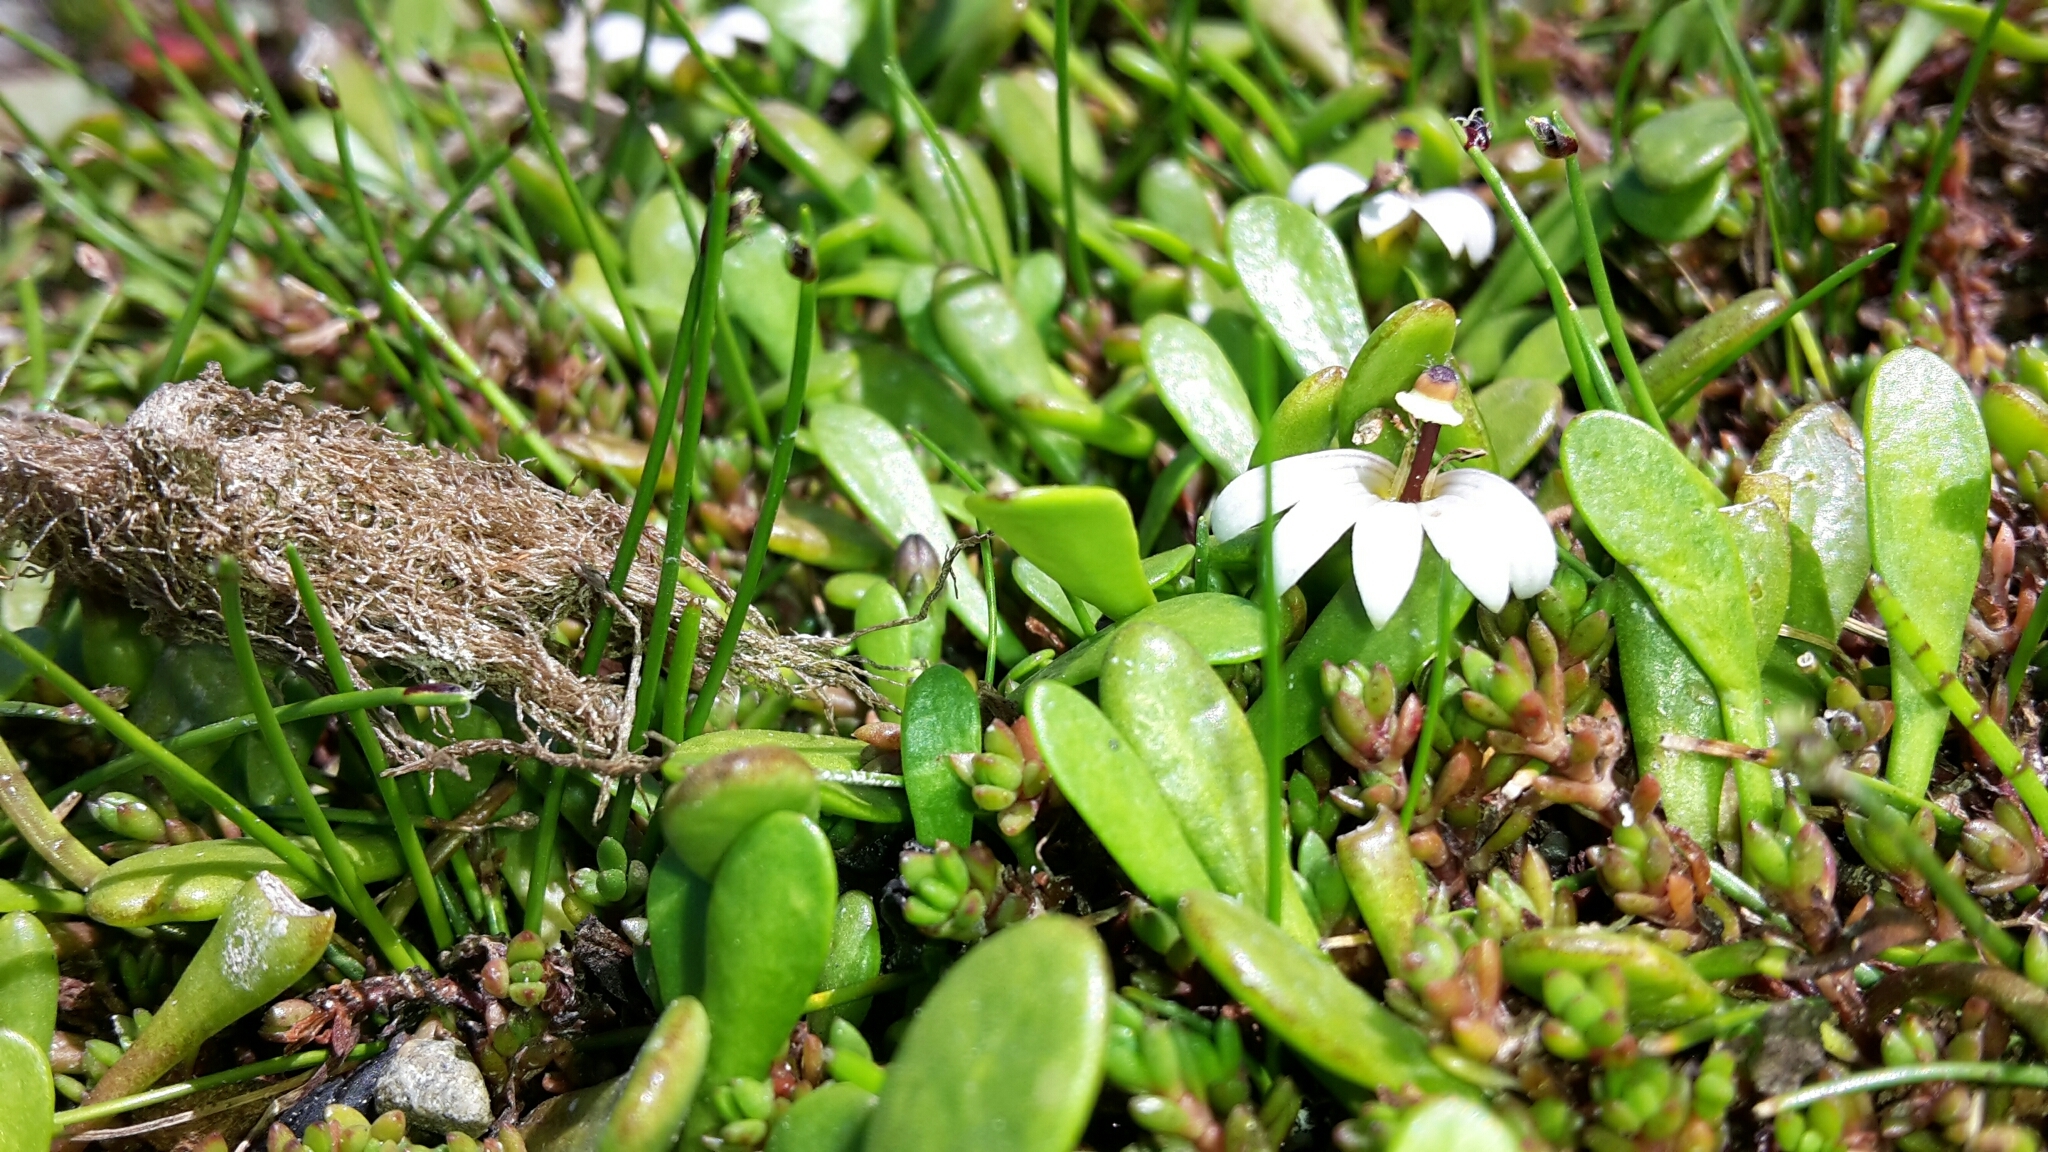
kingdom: Plantae
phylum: Tracheophyta
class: Magnoliopsida
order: Asterales
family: Goodeniaceae
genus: Goodenia
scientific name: Goodenia radicans
